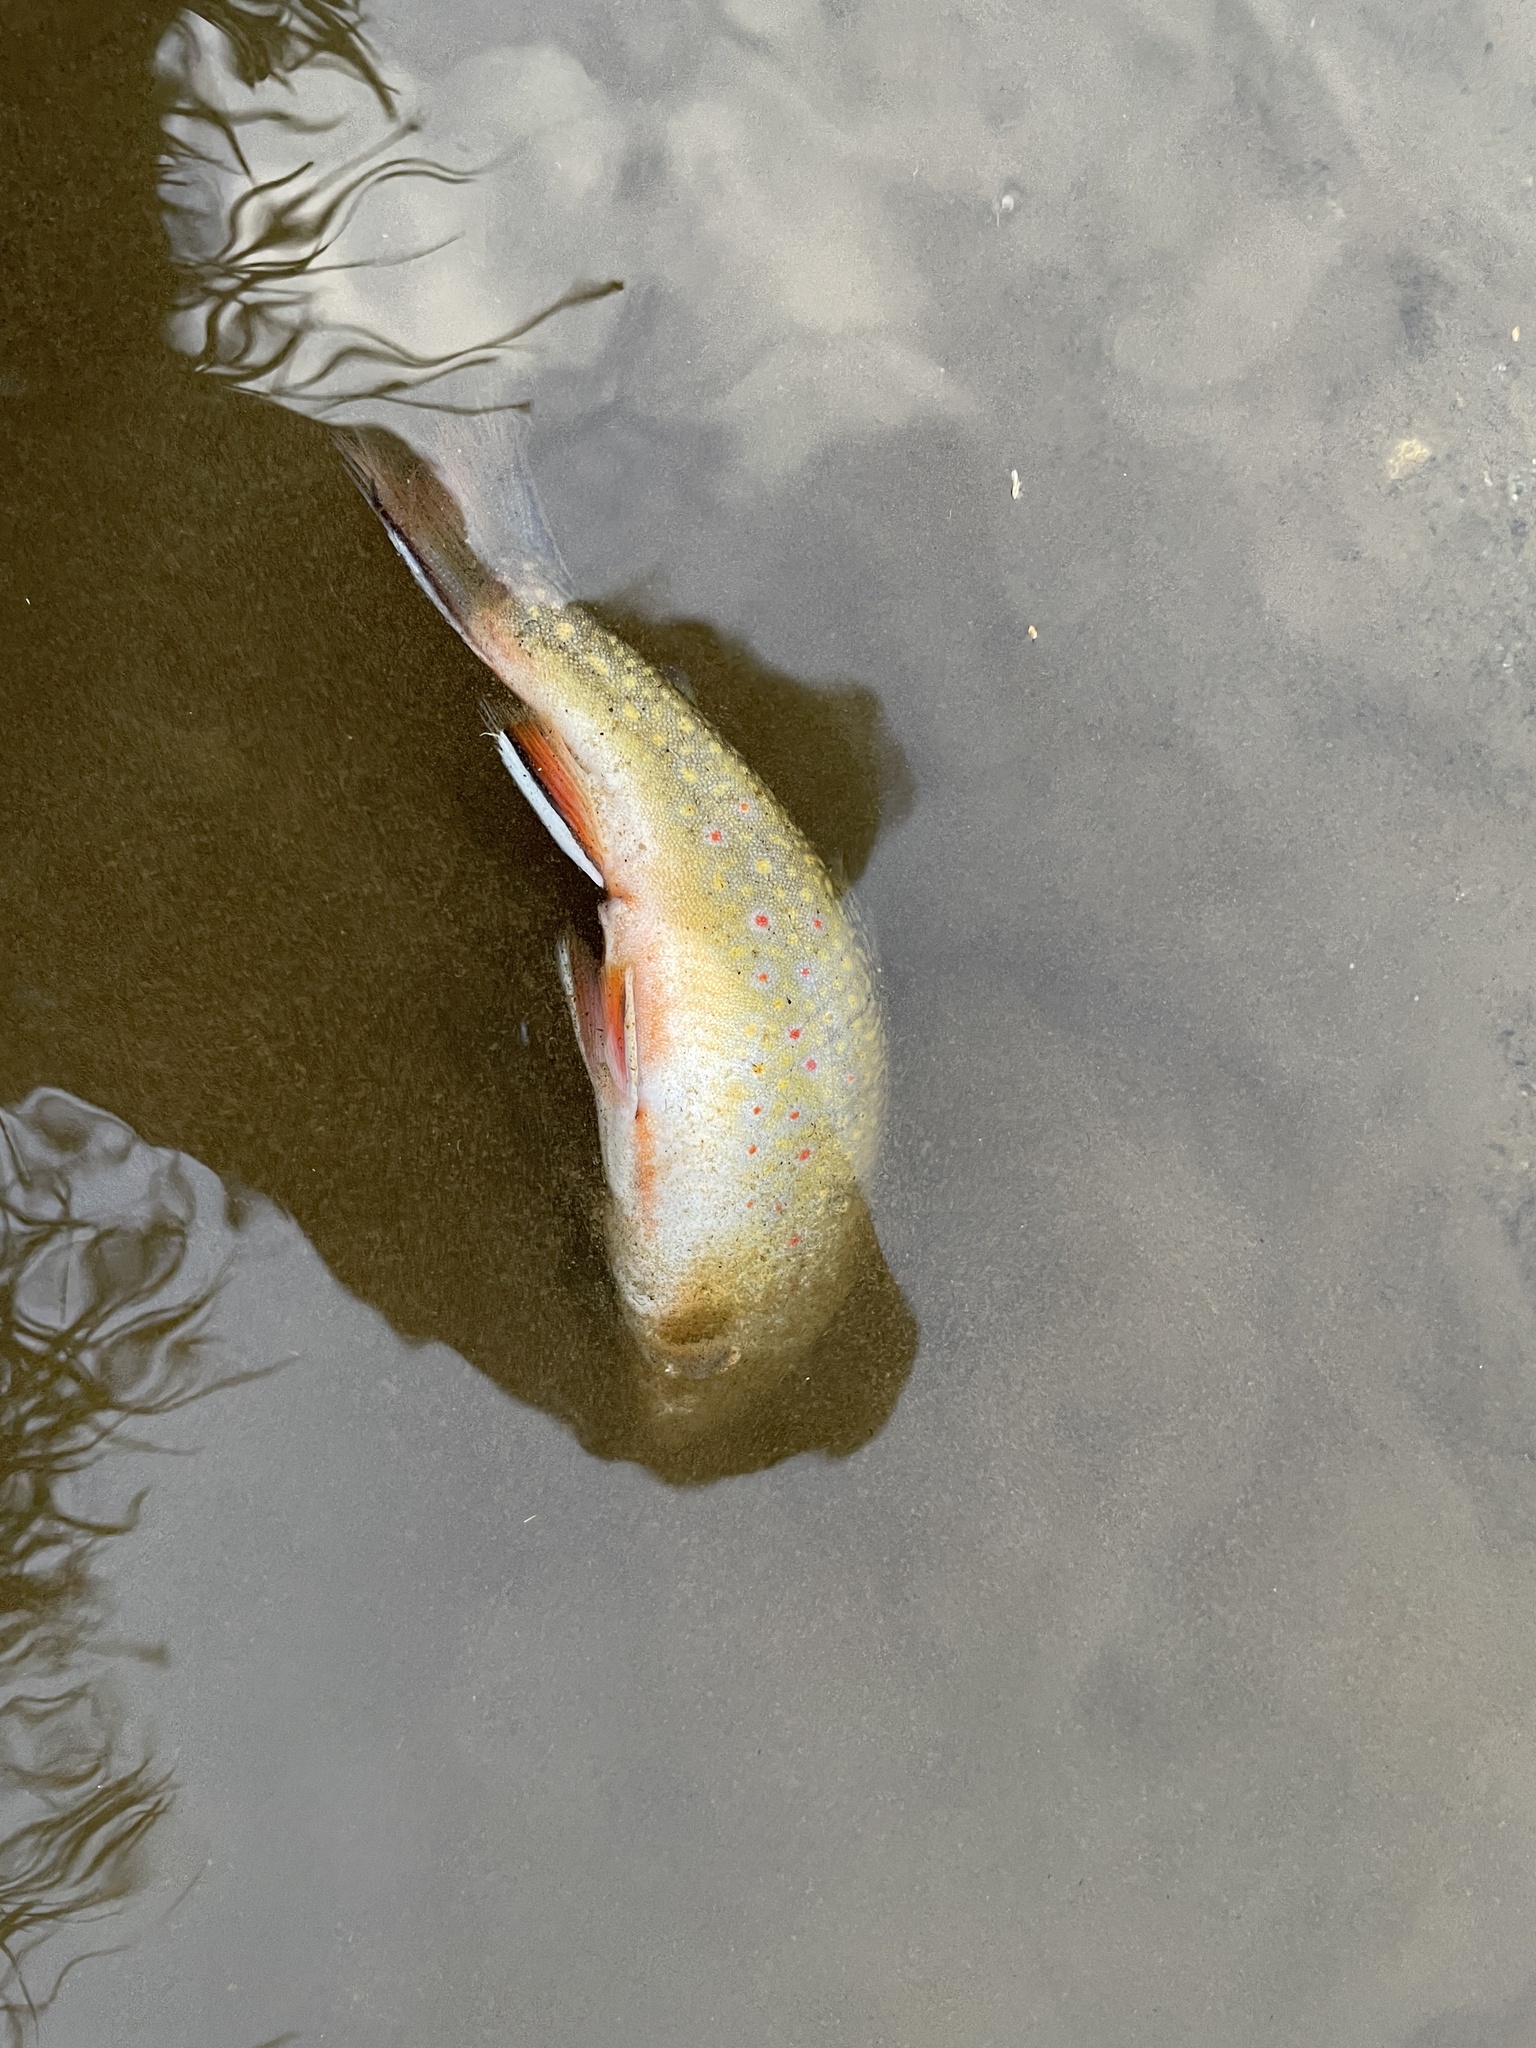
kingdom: Animalia
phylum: Chordata
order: Salmoniformes
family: Salmonidae
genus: Salvelinus
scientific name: Salvelinus fontinalis
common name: Brook trout
